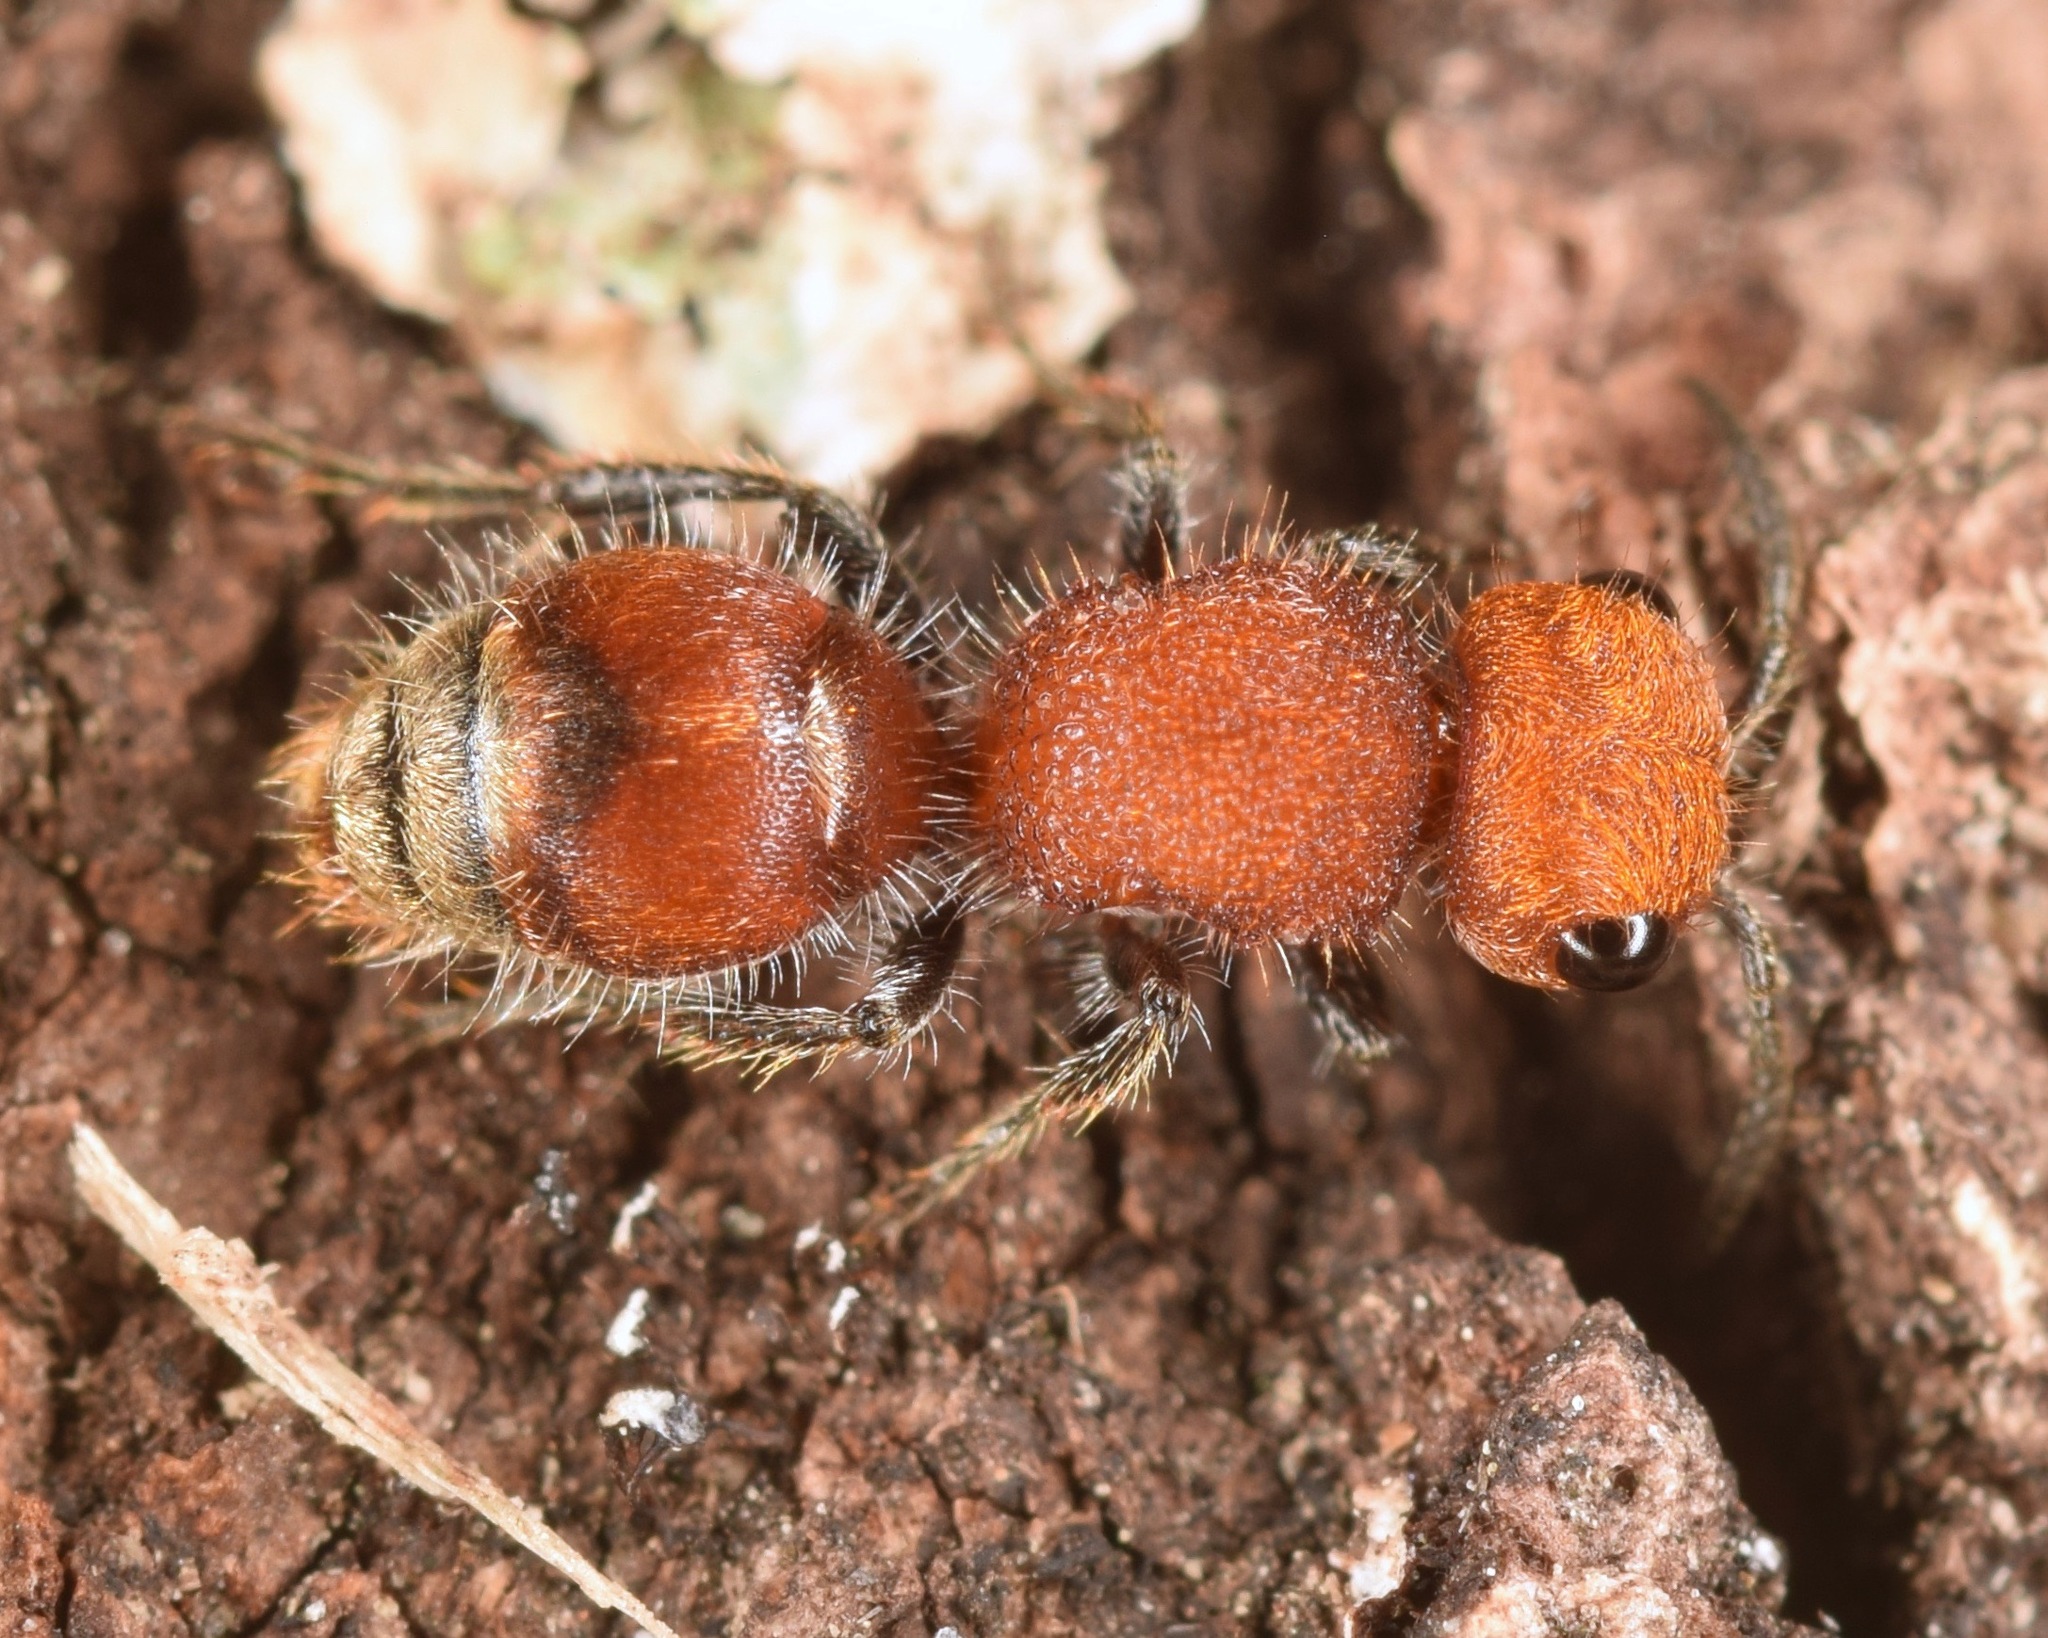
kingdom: Animalia
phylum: Arthropoda
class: Insecta
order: Hymenoptera
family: Mutillidae
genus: Pseudomethoca
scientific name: Pseudomethoca wickhami
